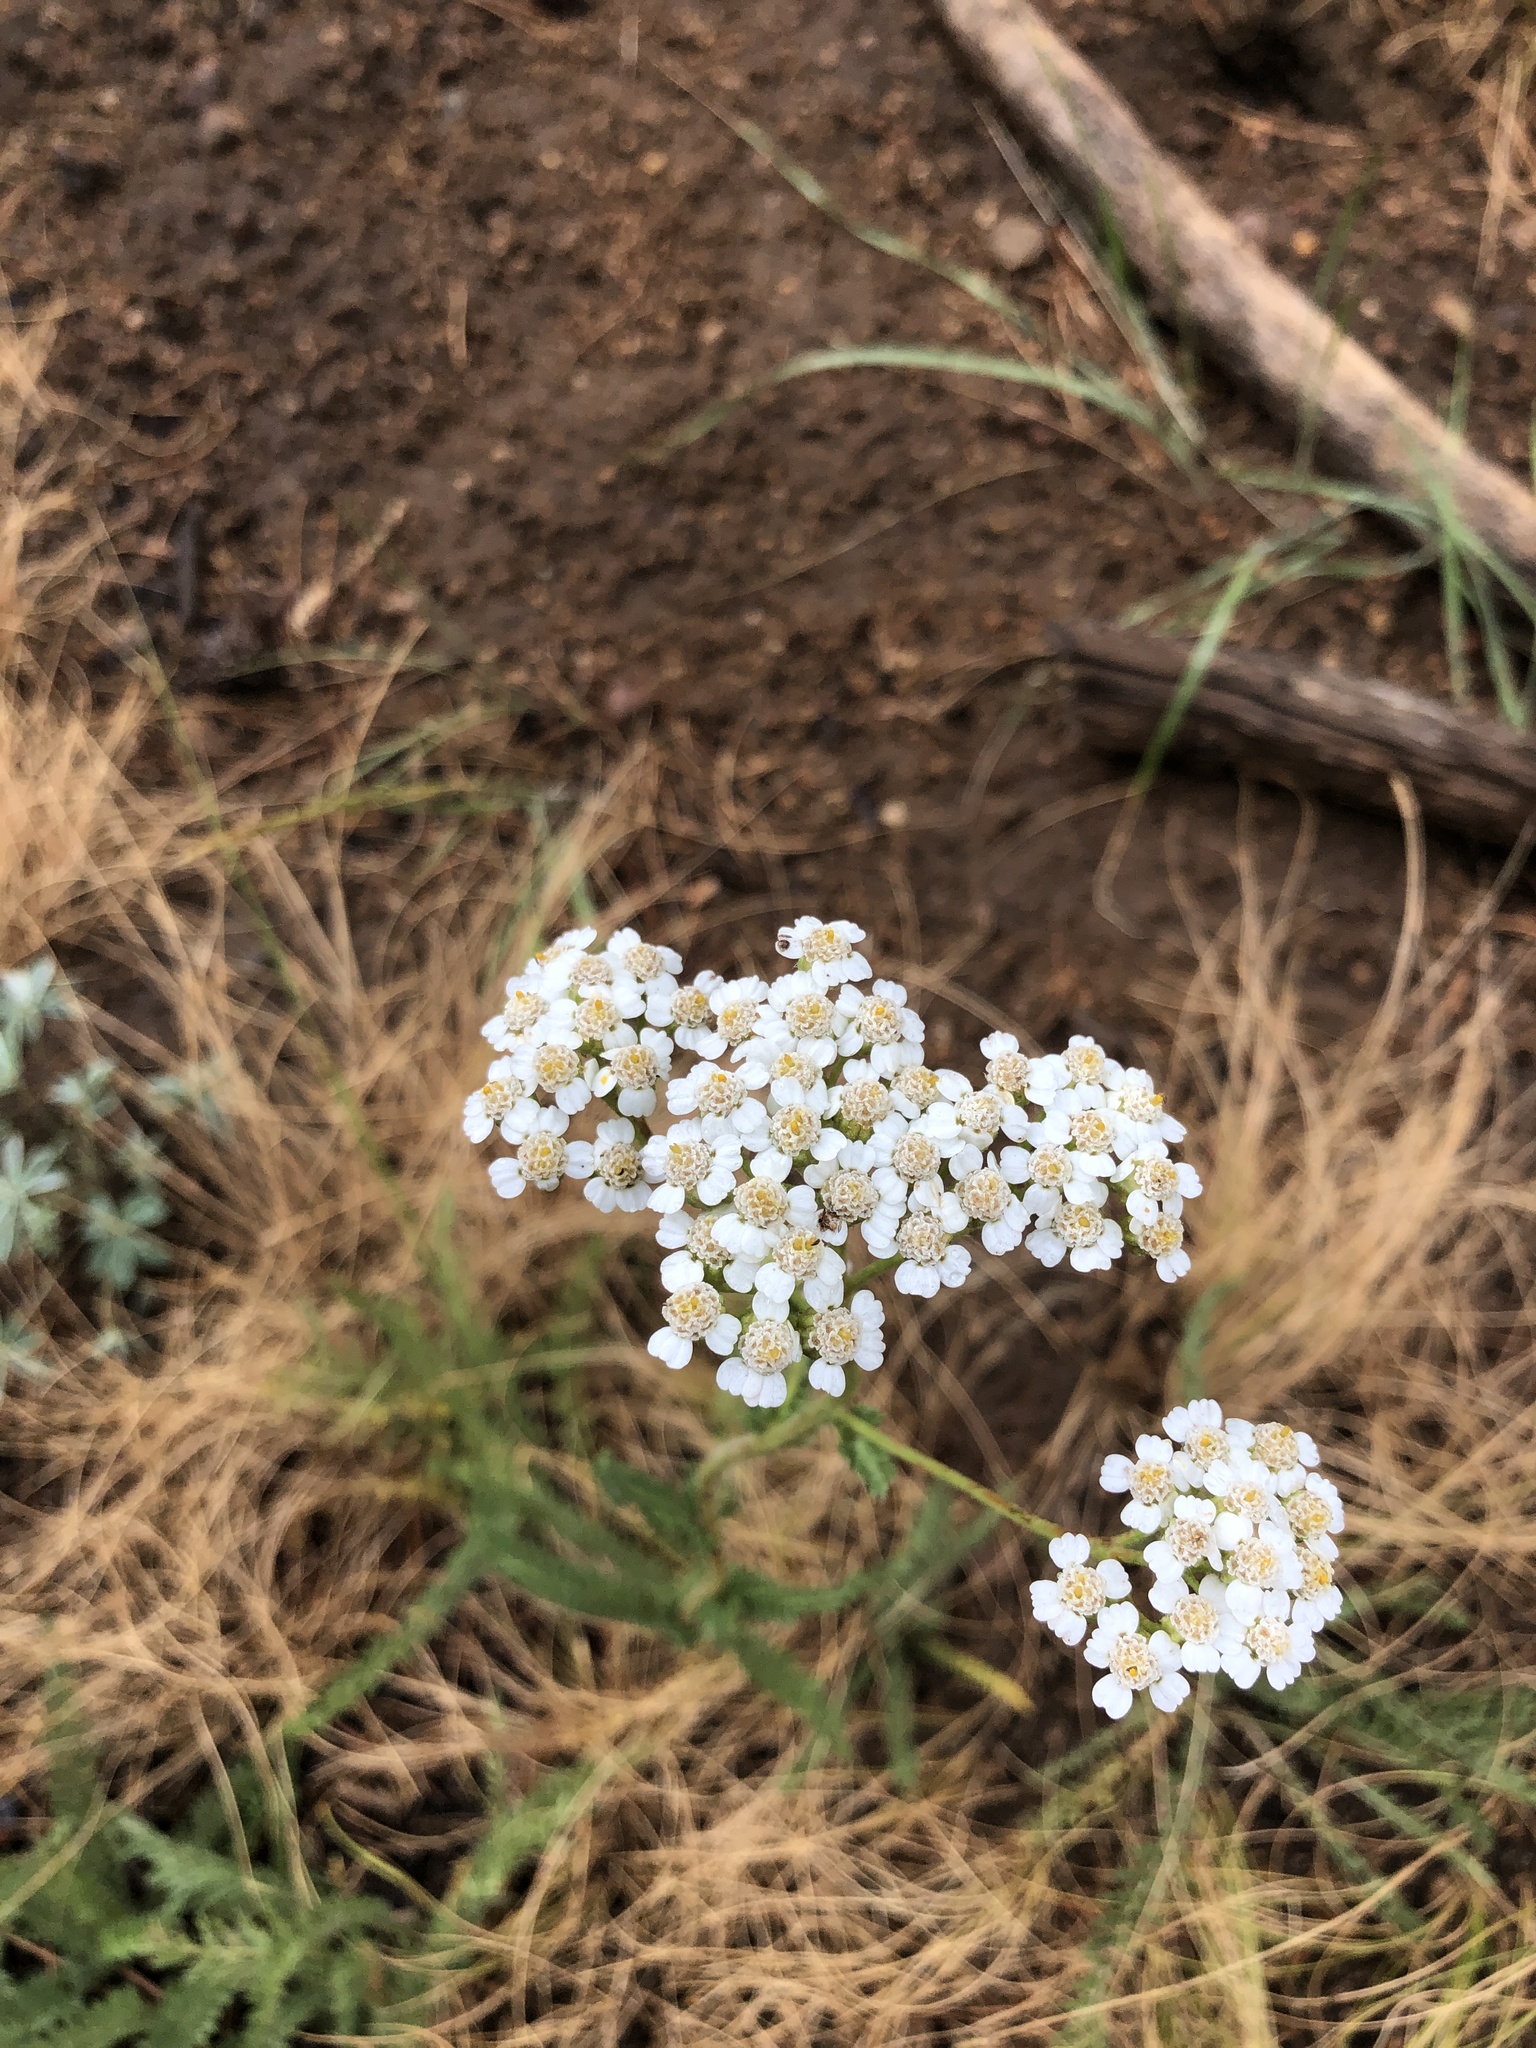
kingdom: Plantae
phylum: Tracheophyta
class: Magnoliopsida
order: Asterales
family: Asteraceae
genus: Achillea
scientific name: Achillea millefolium
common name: Yarrow
